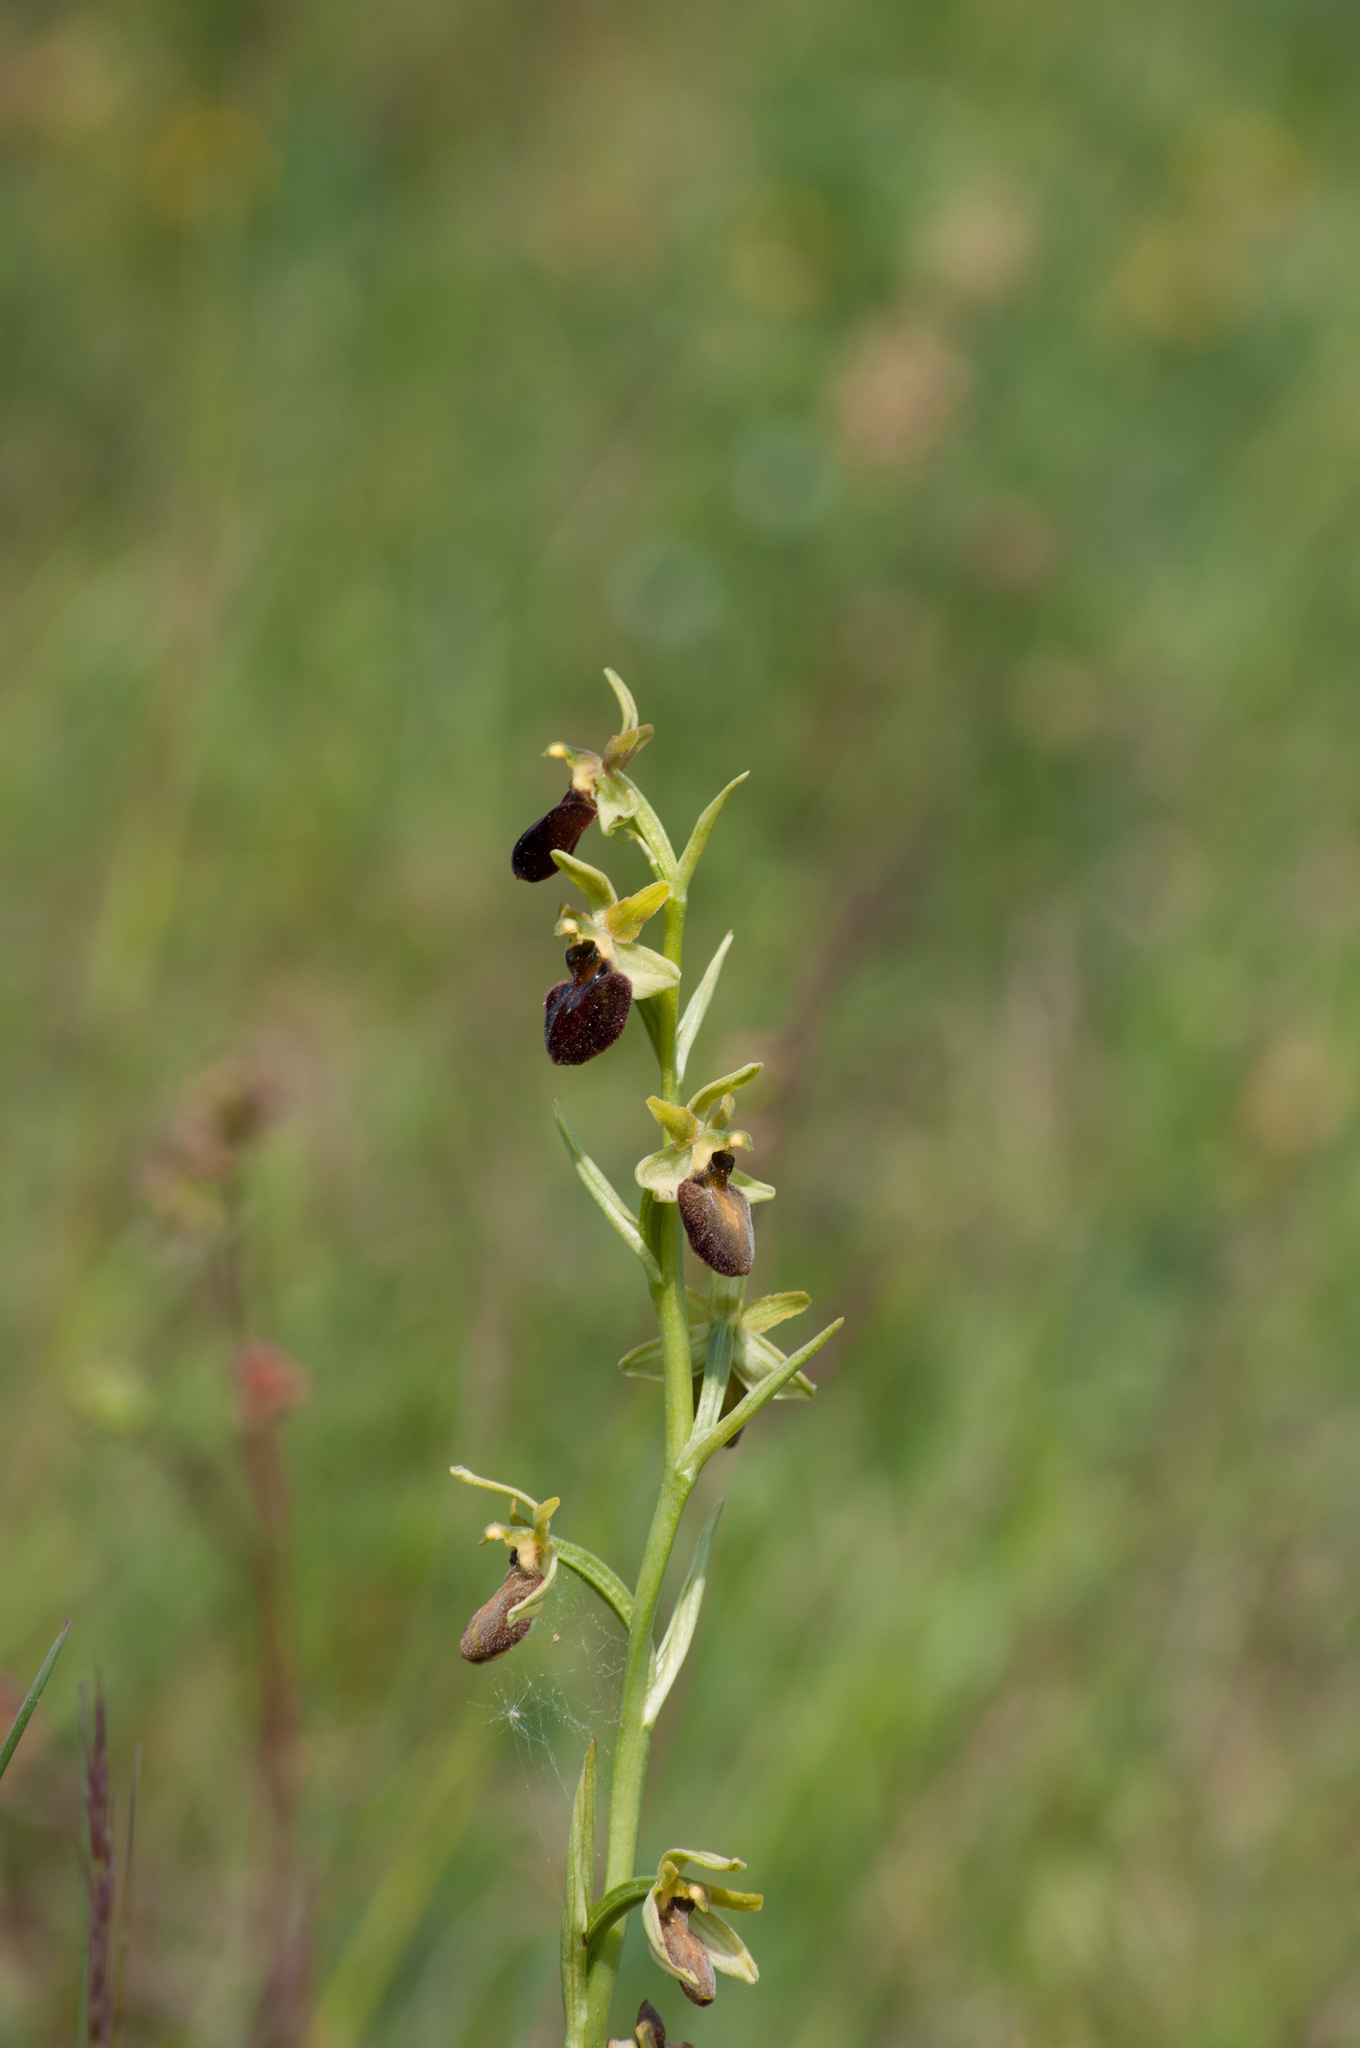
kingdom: Plantae
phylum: Tracheophyta
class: Liliopsida
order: Asparagales
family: Orchidaceae
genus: Ophrys
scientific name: Ophrys sphegodes
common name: Early spider-orchid
